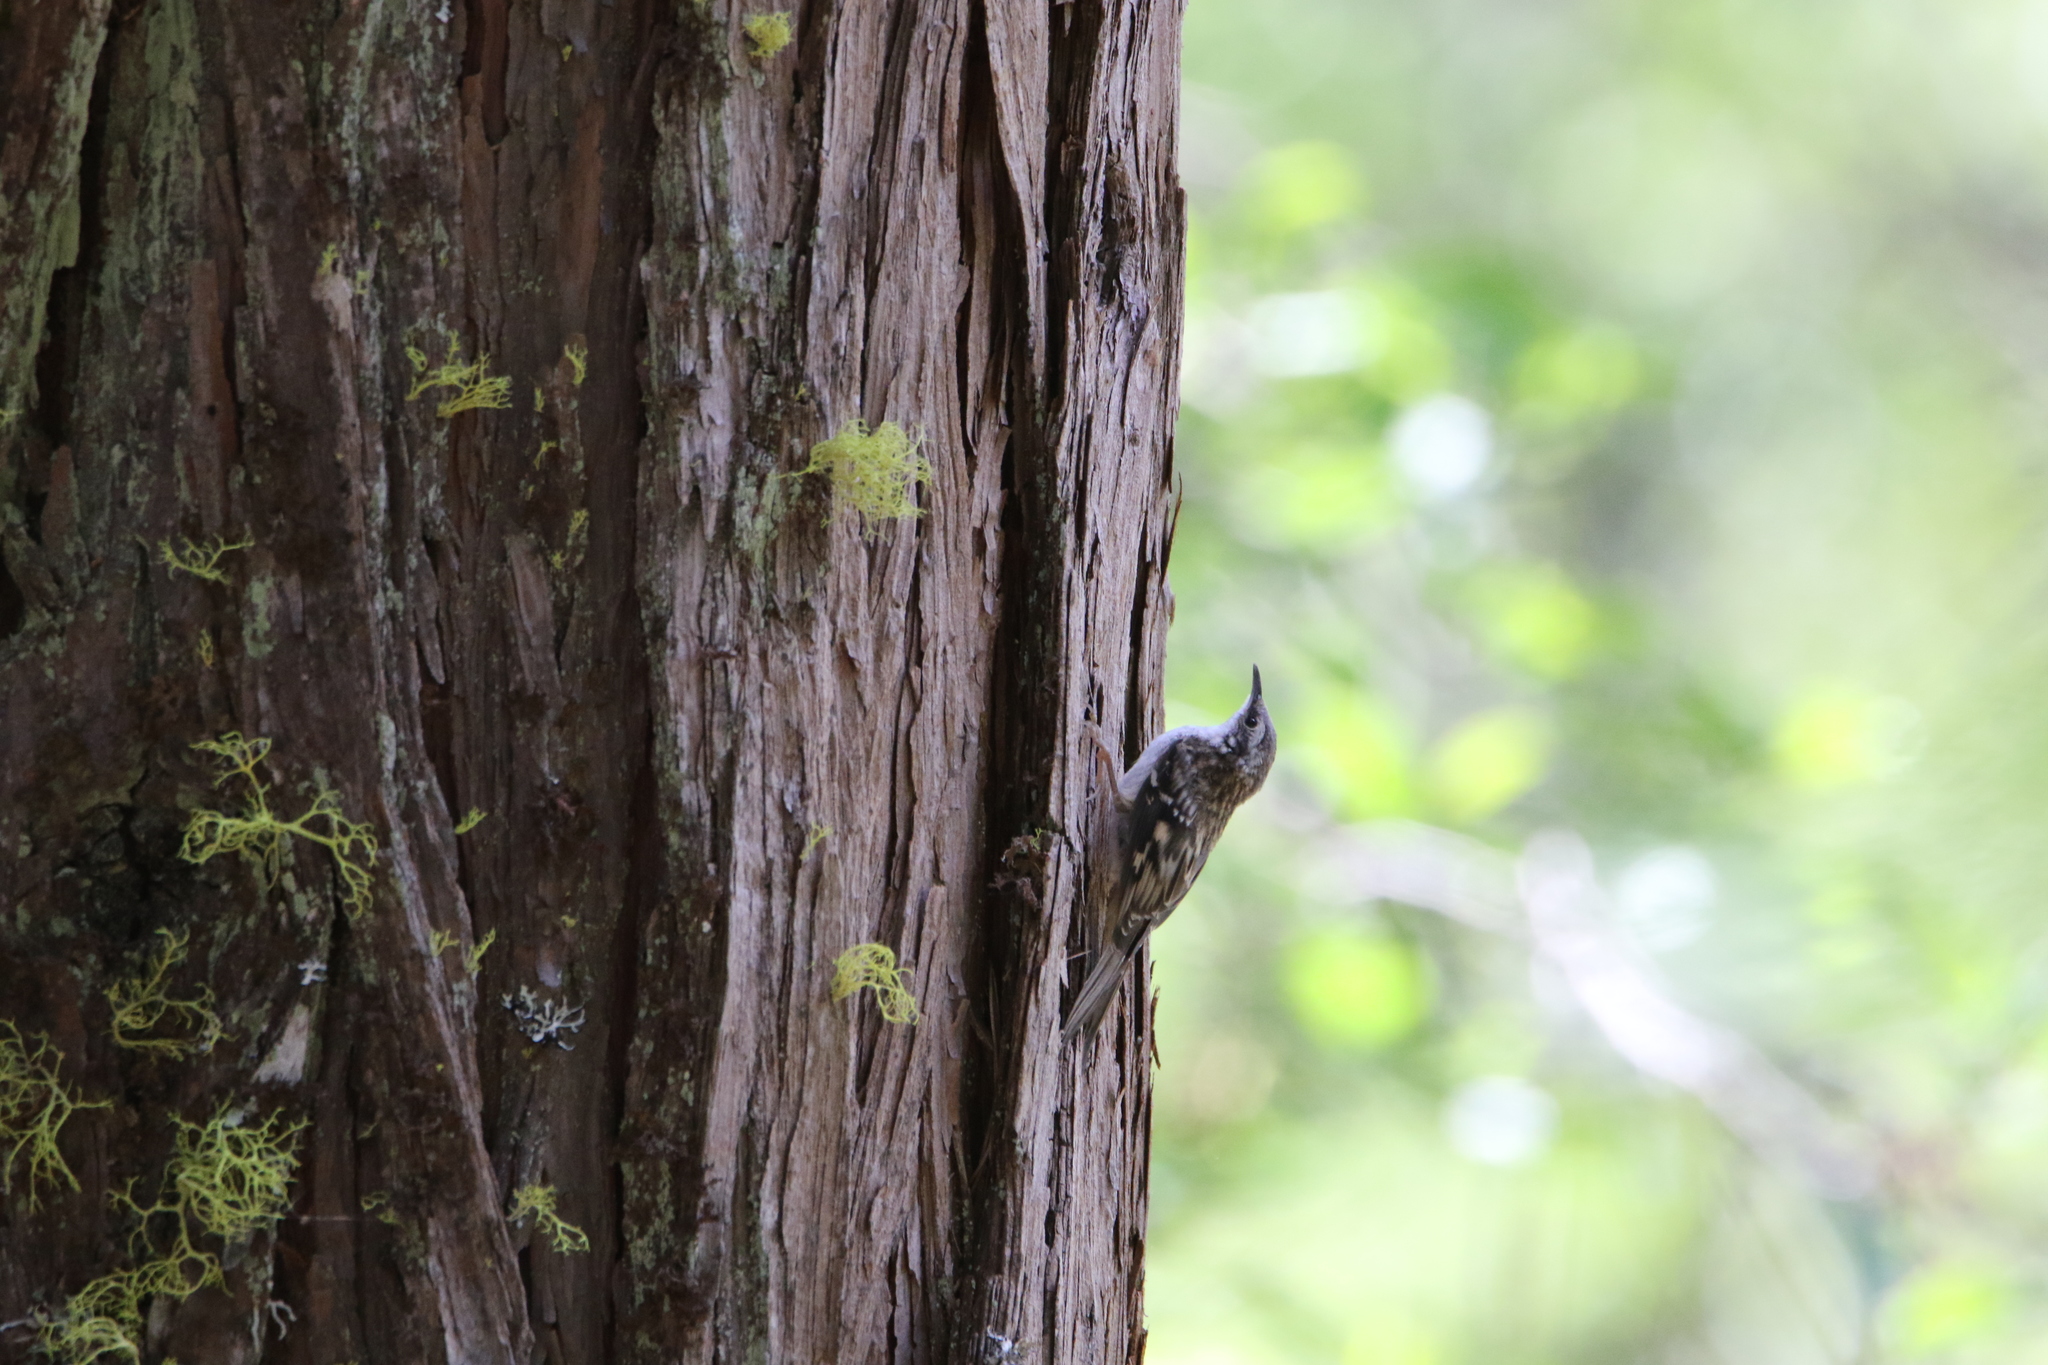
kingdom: Animalia
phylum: Chordata
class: Aves
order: Passeriformes
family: Certhiidae
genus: Certhia
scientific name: Certhia americana
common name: Brown creeper
